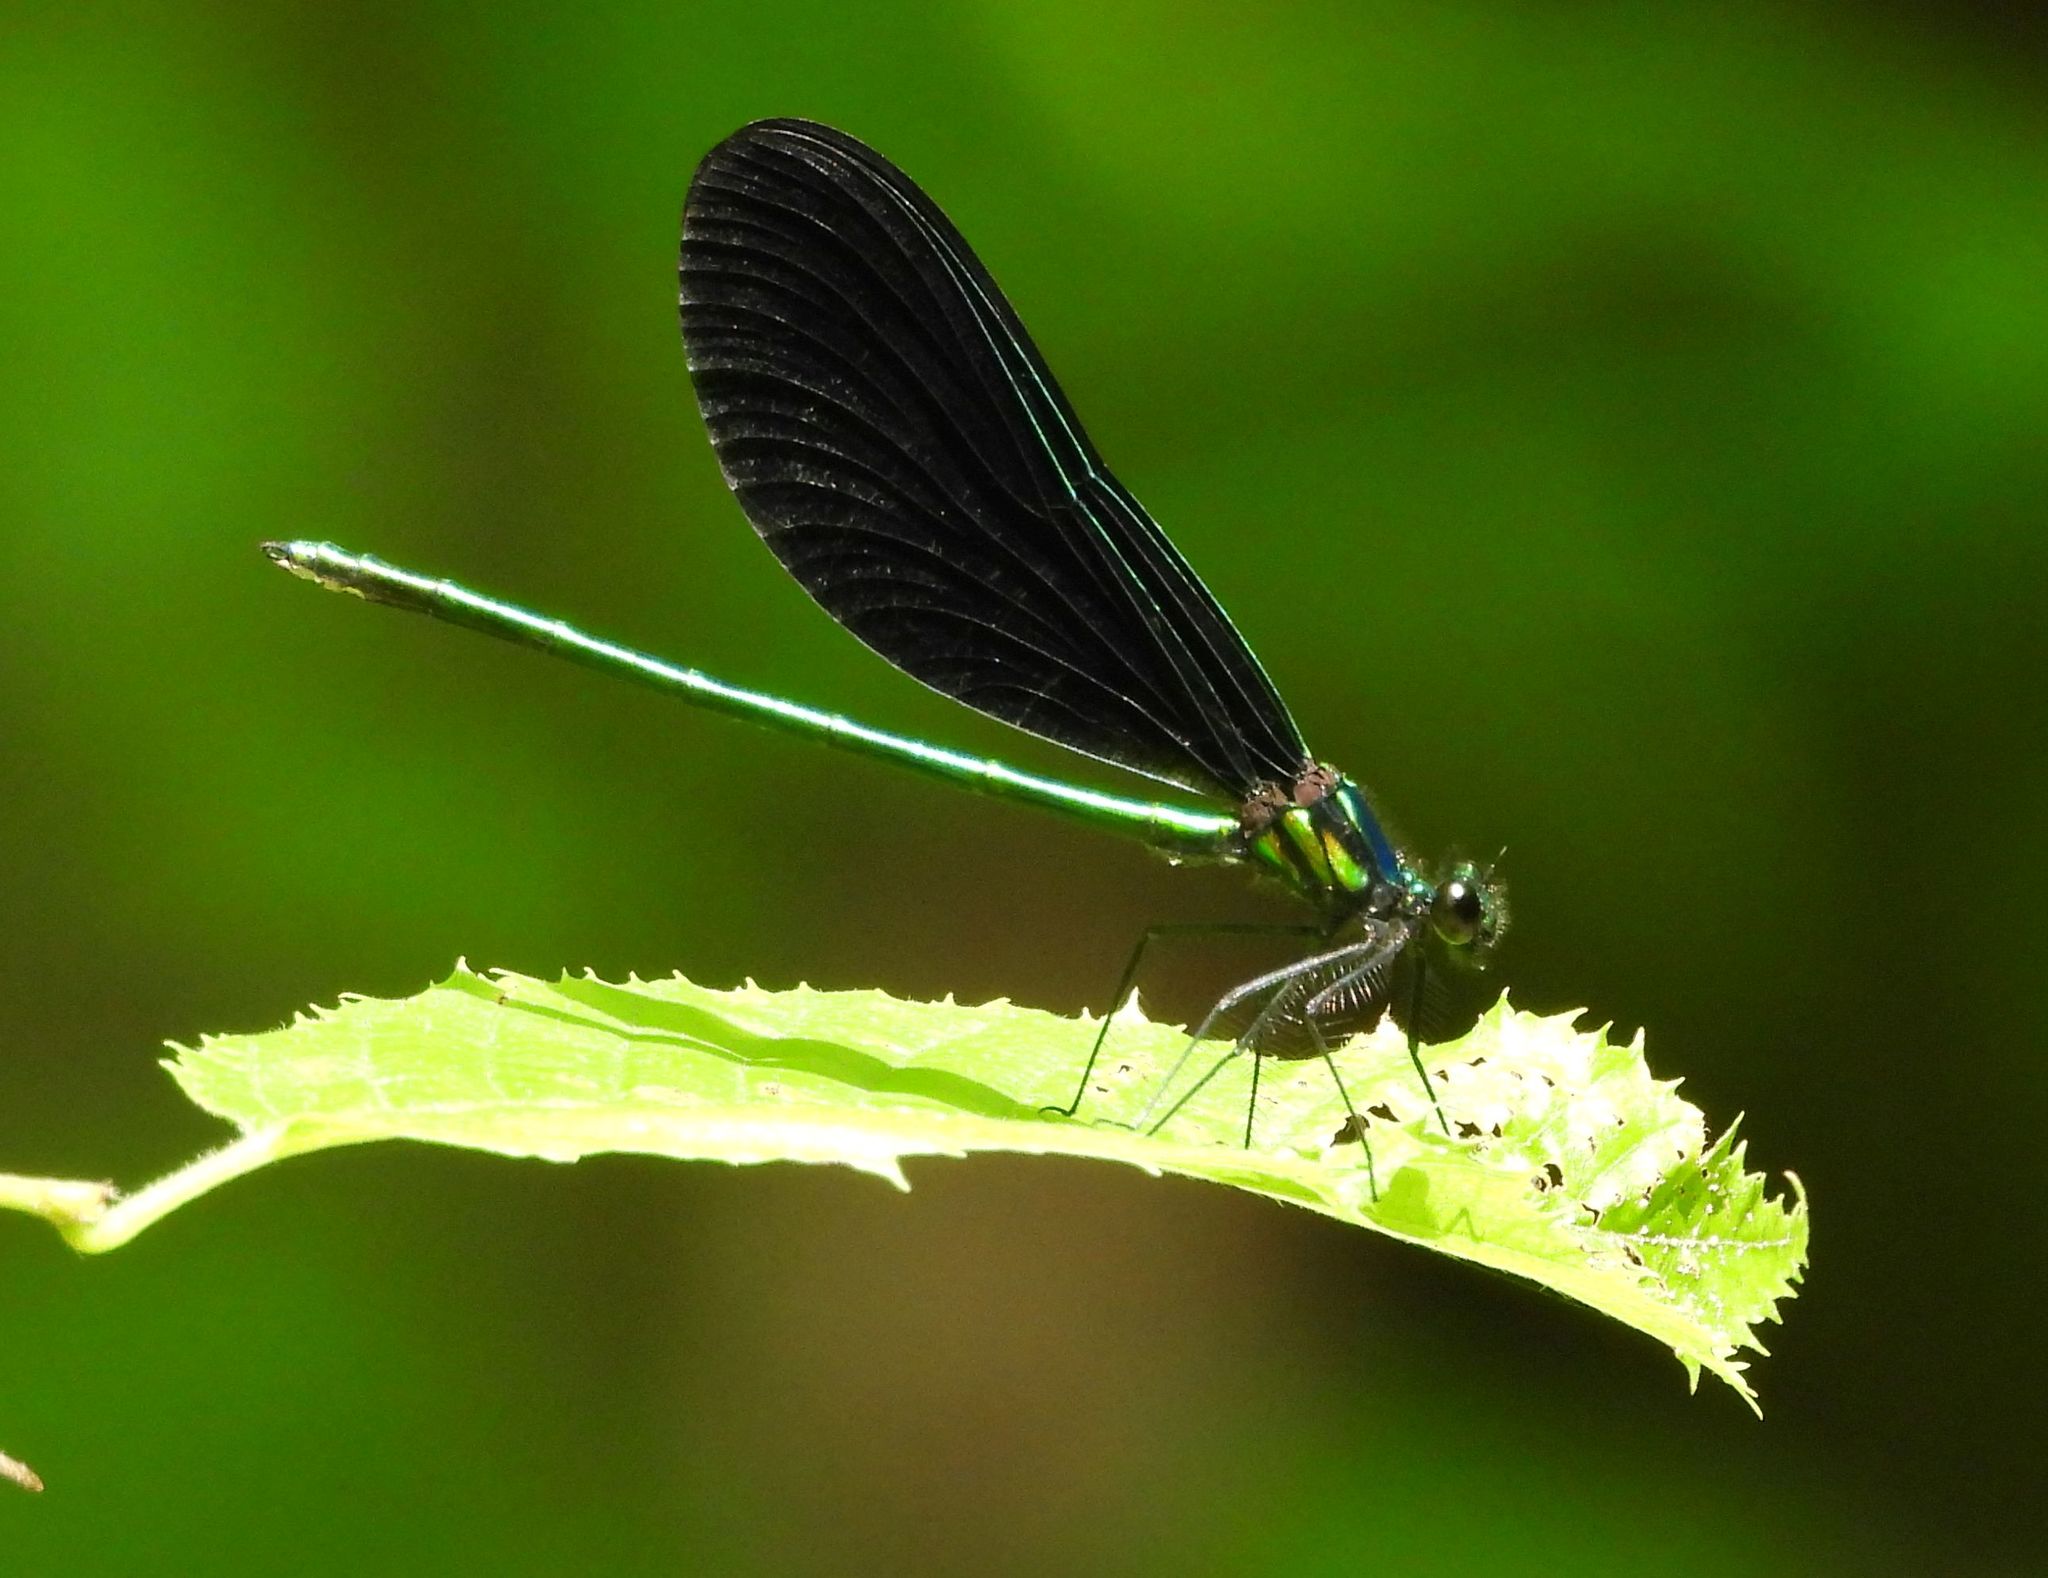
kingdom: Animalia
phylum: Arthropoda
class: Insecta
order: Odonata
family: Calopterygidae
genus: Calopteryx
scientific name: Calopteryx maculata
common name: Ebony jewelwing
